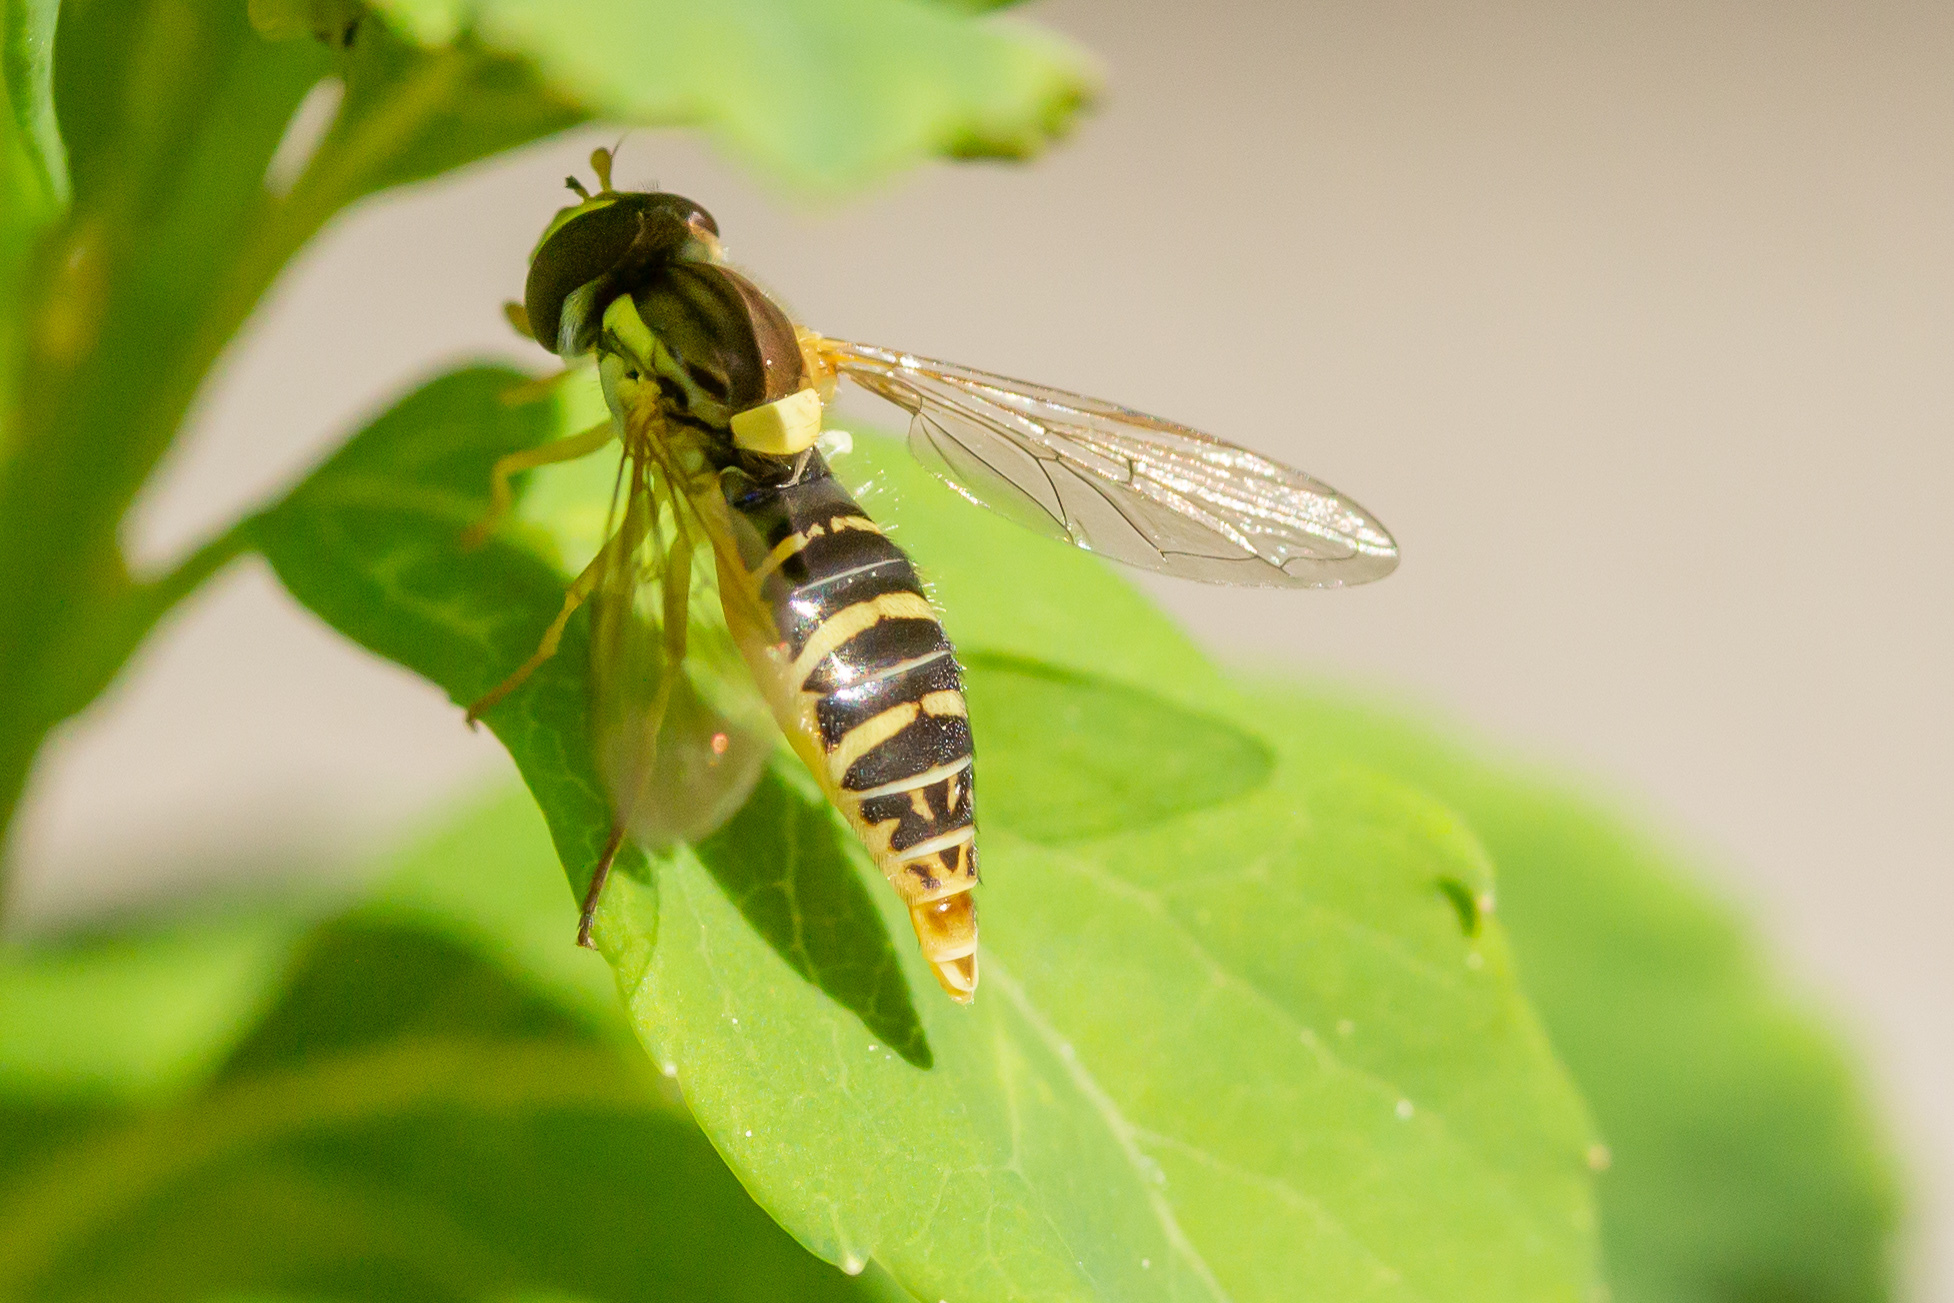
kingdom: Animalia
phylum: Arthropoda
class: Insecta
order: Diptera
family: Syrphidae
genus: Sphaerophoria
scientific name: Sphaerophoria
